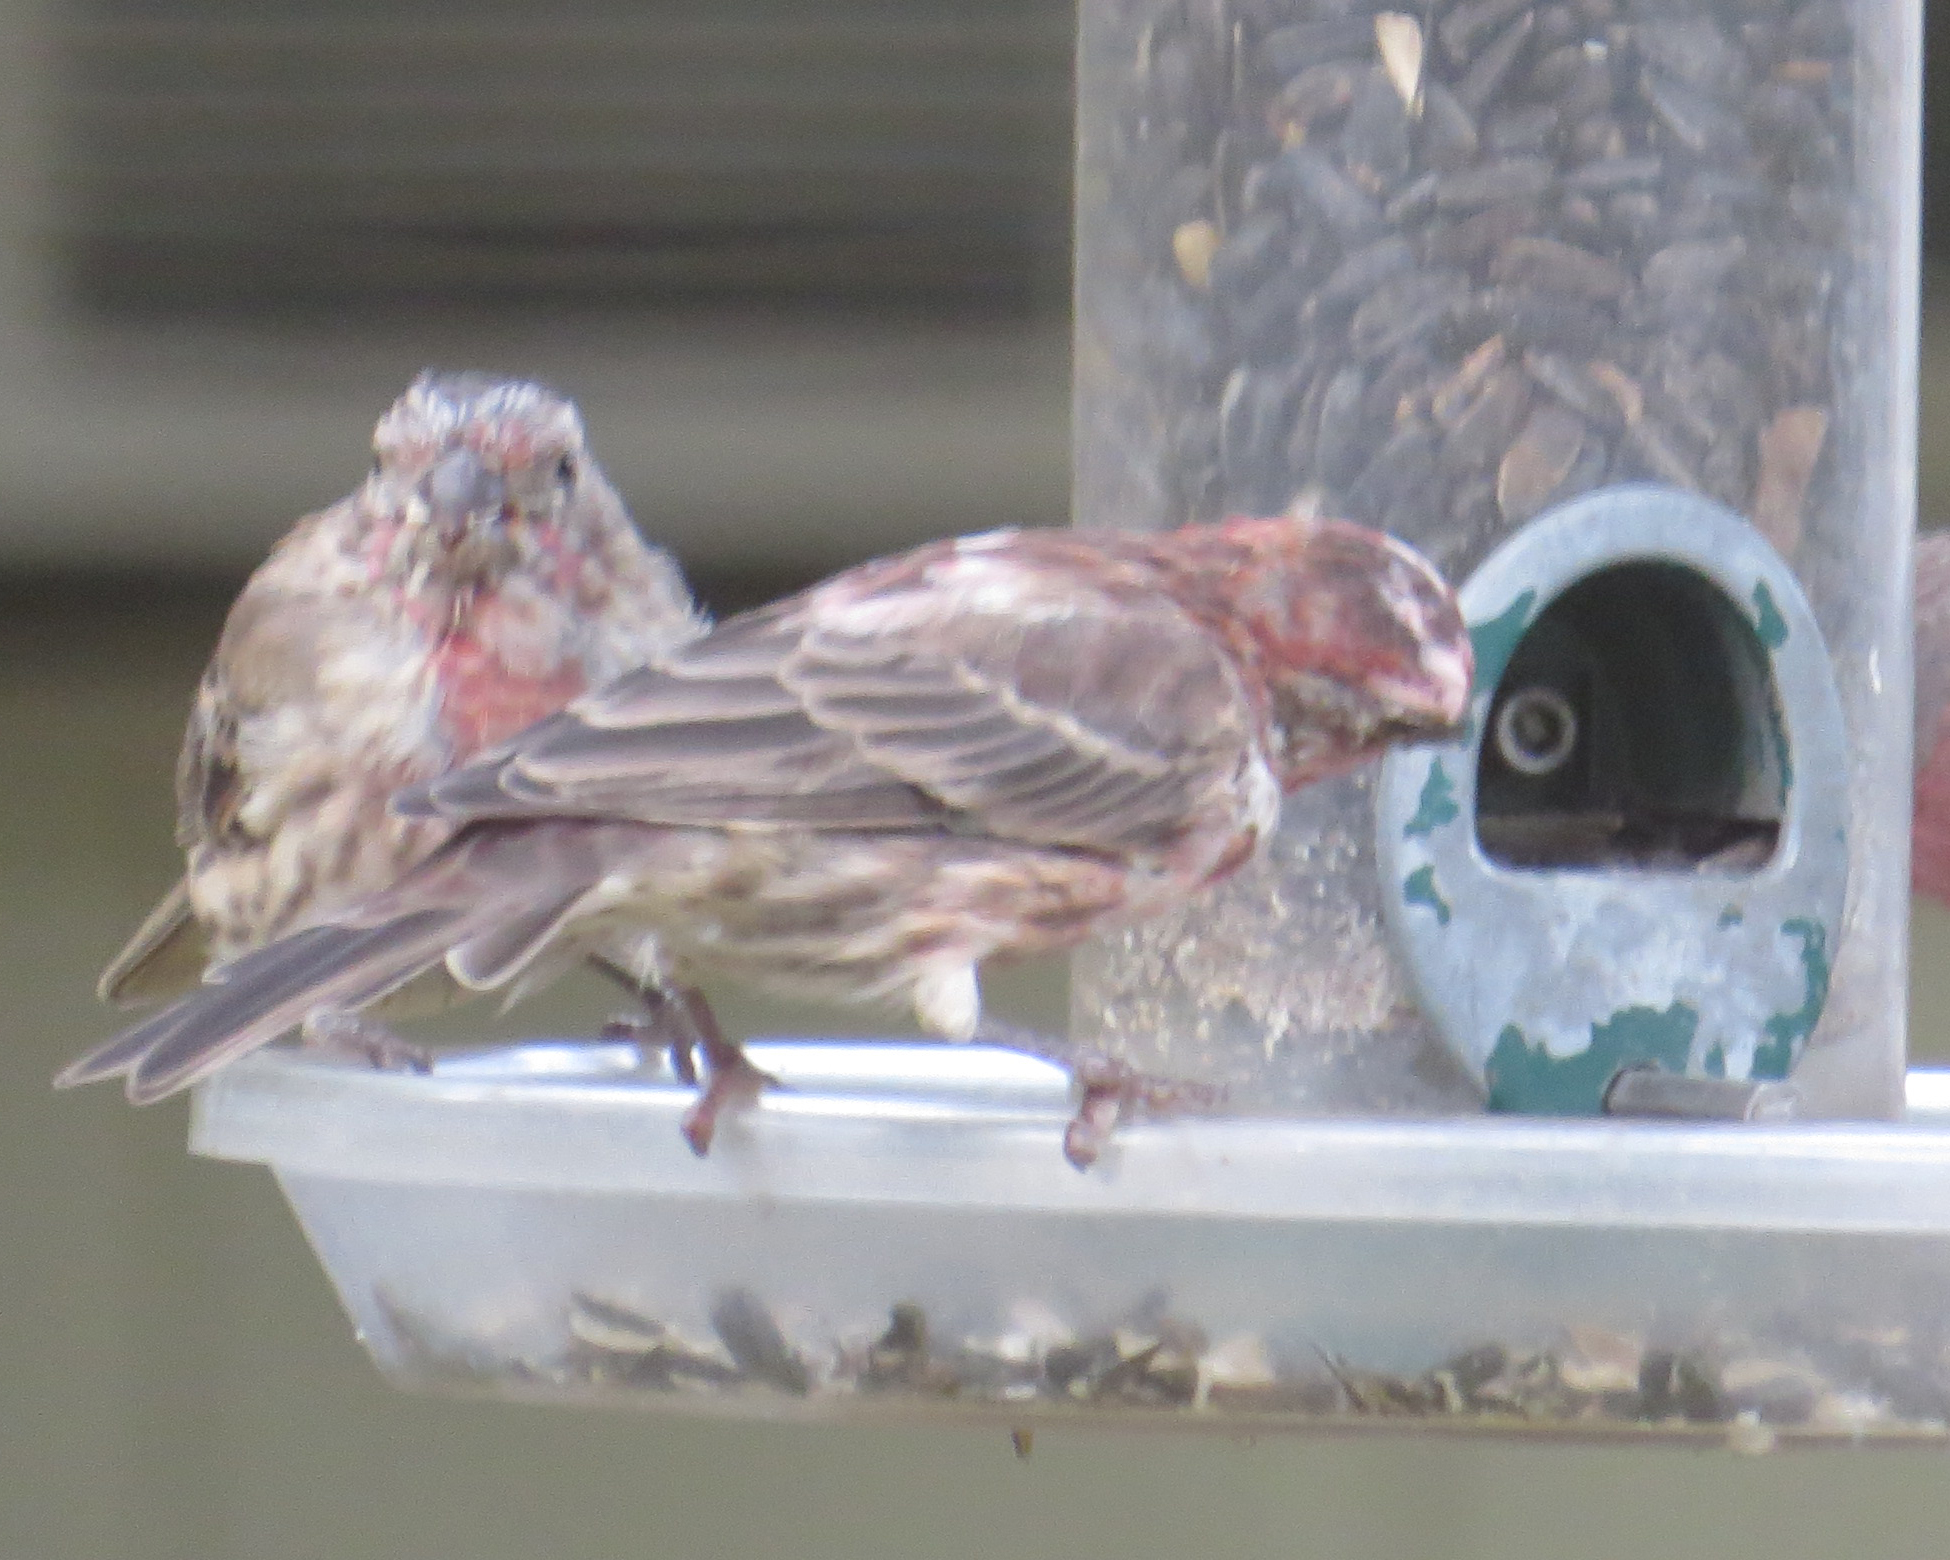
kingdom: Animalia
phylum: Chordata
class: Aves
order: Passeriformes
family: Fringillidae
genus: Haemorhous
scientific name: Haemorhous mexicanus
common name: House finch
